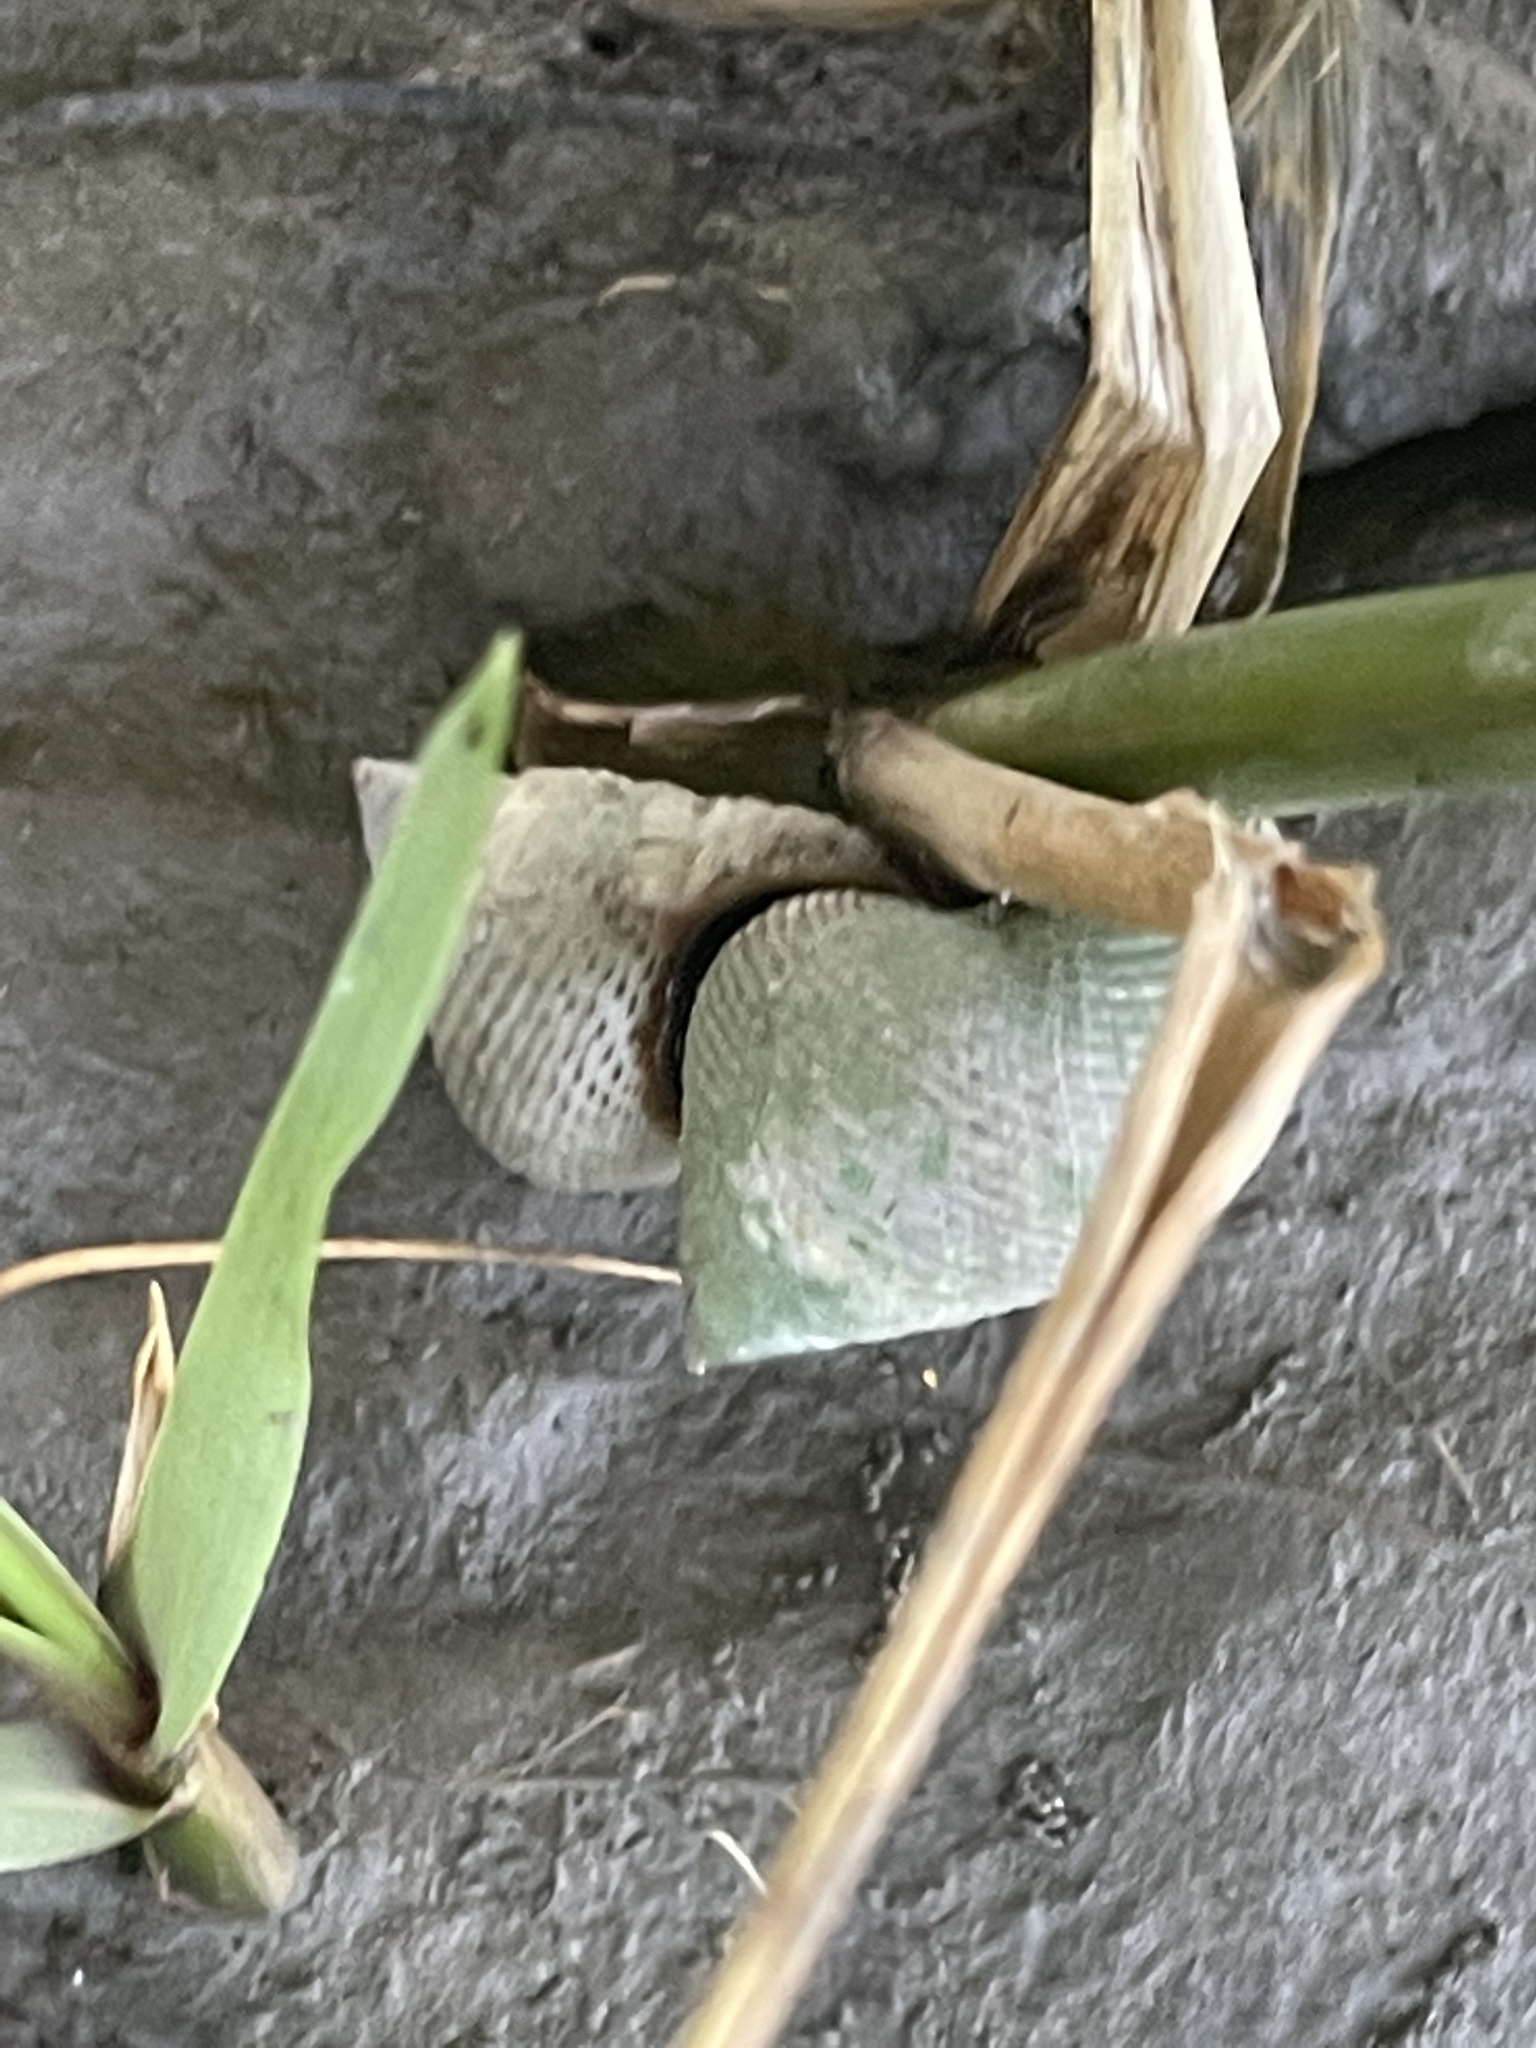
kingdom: Animalia
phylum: Mollusca
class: Gastropoda
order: Littorinimorpha
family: Littorinidae
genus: Littoraria
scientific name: Littoraria irrorata
